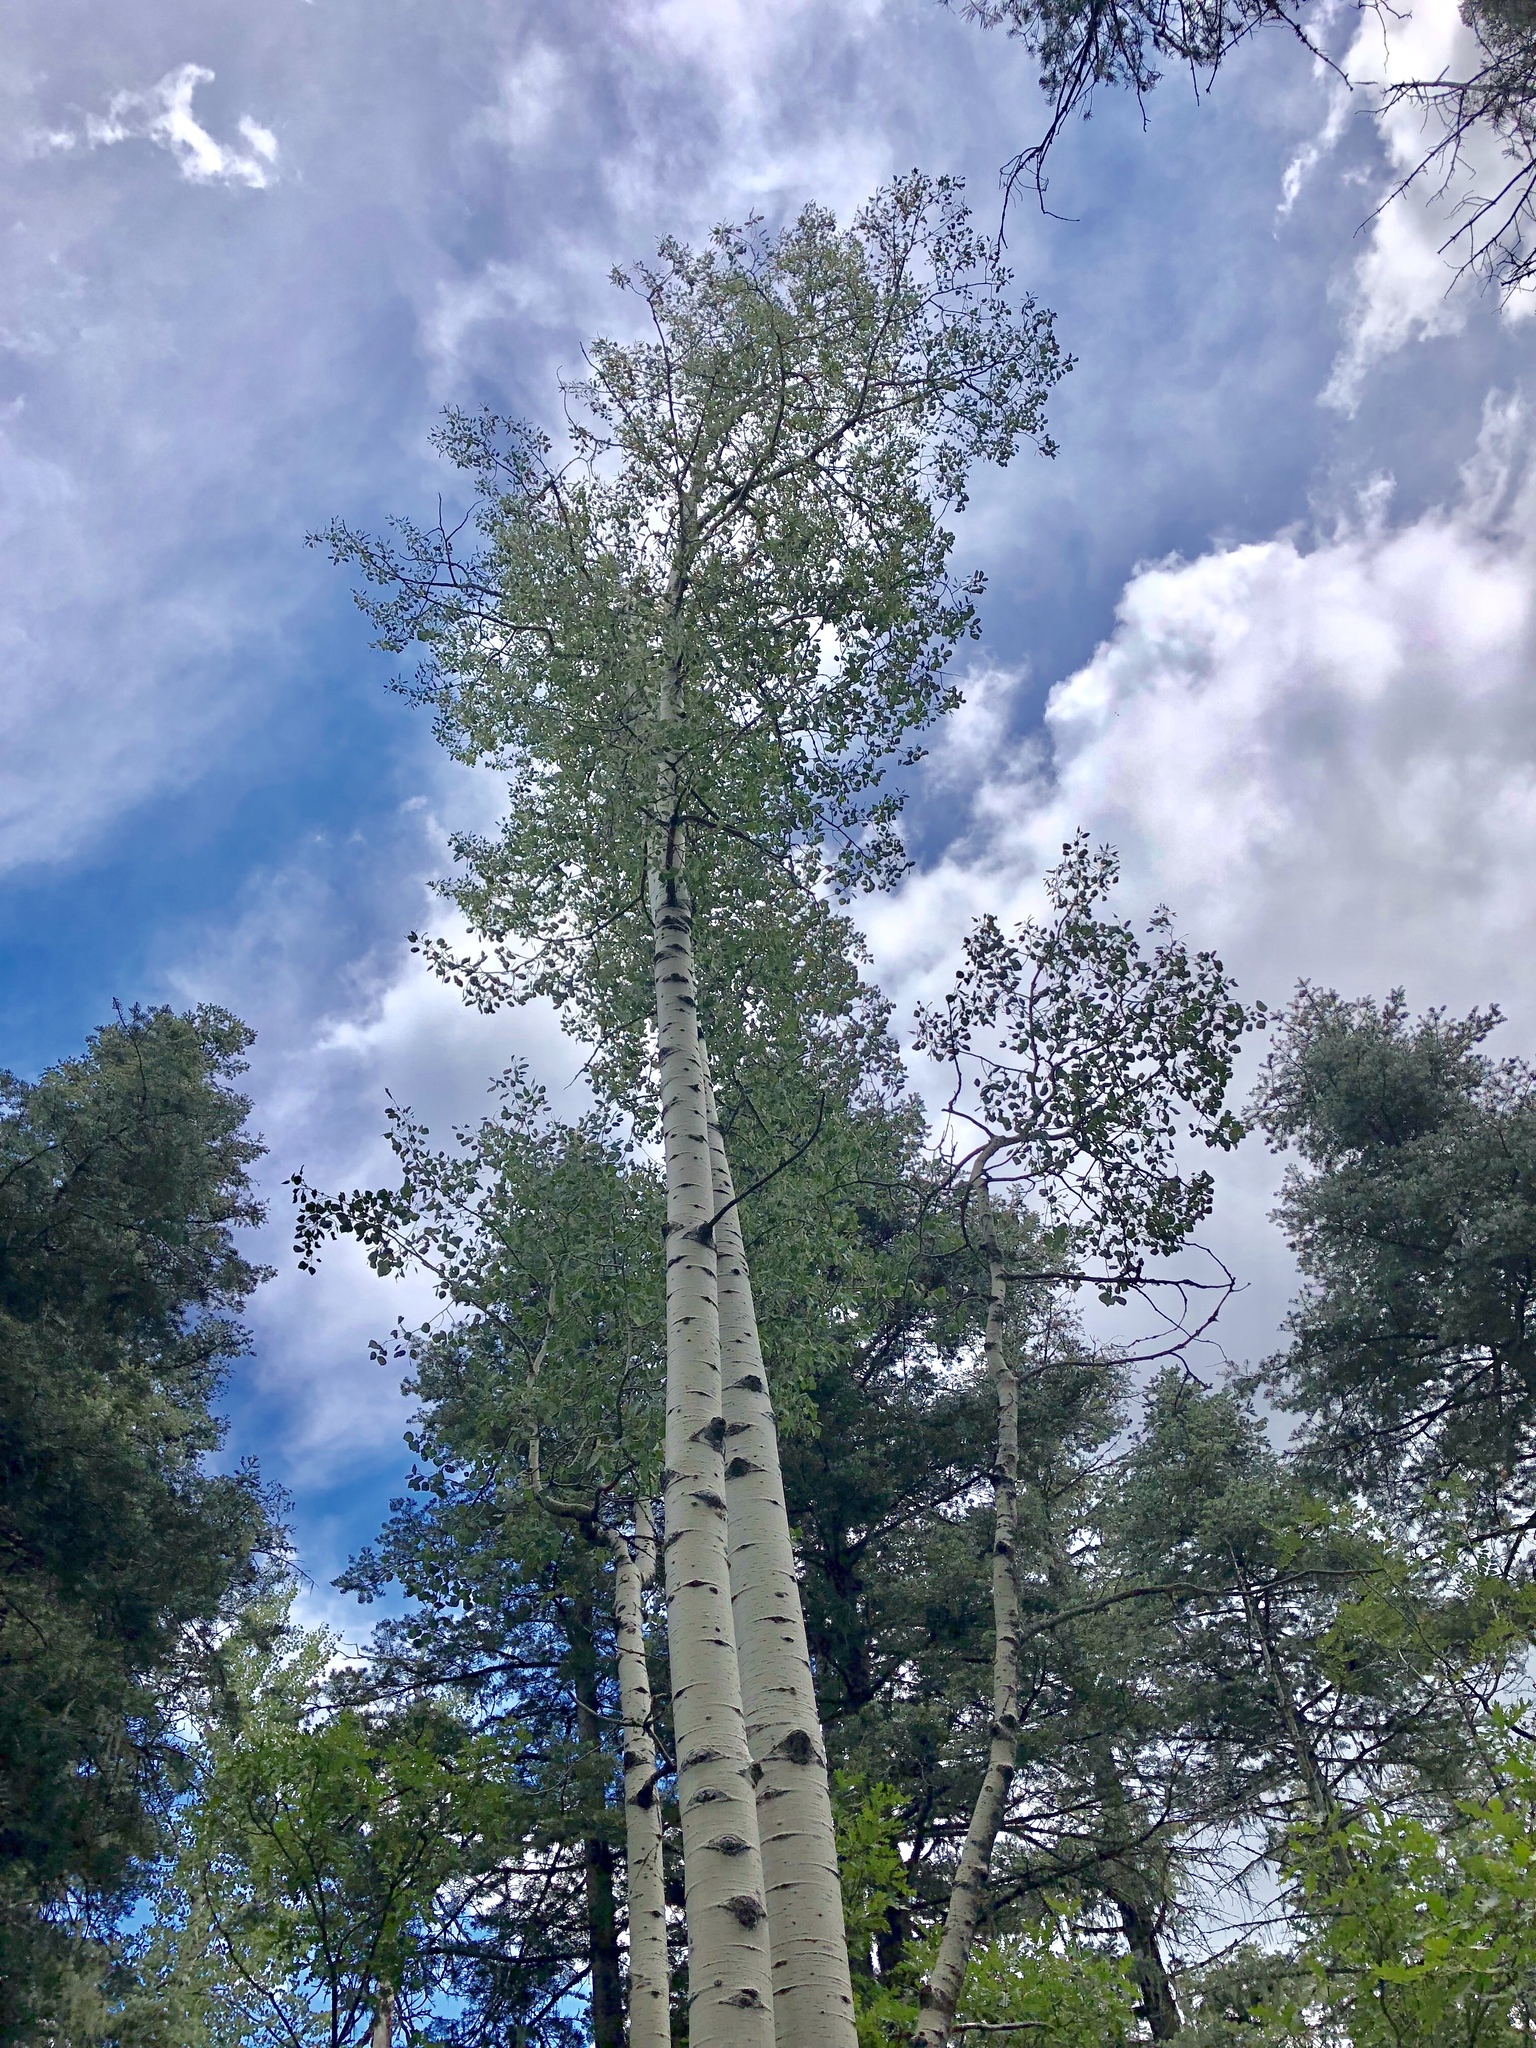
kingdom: Plantae
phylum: Tracheophyta
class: Magnoliopsida
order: Malpighiales
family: Salicaceae
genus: Populus
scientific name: Populus tremuloides
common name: Quaking aspen
